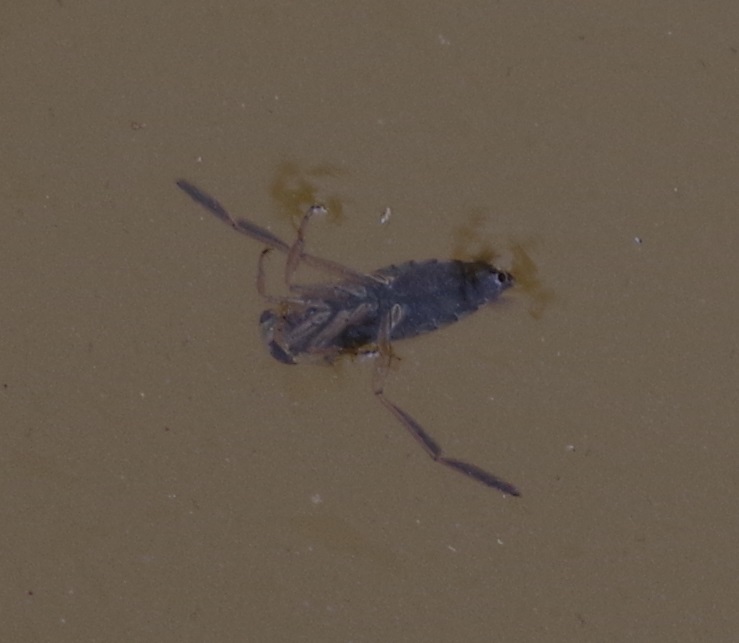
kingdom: Animalia
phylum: Arthropoda
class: Insecta
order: Hemiptera
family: Notonectidae
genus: Notonecta
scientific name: Notonecta glauca
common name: Common water-boatman
